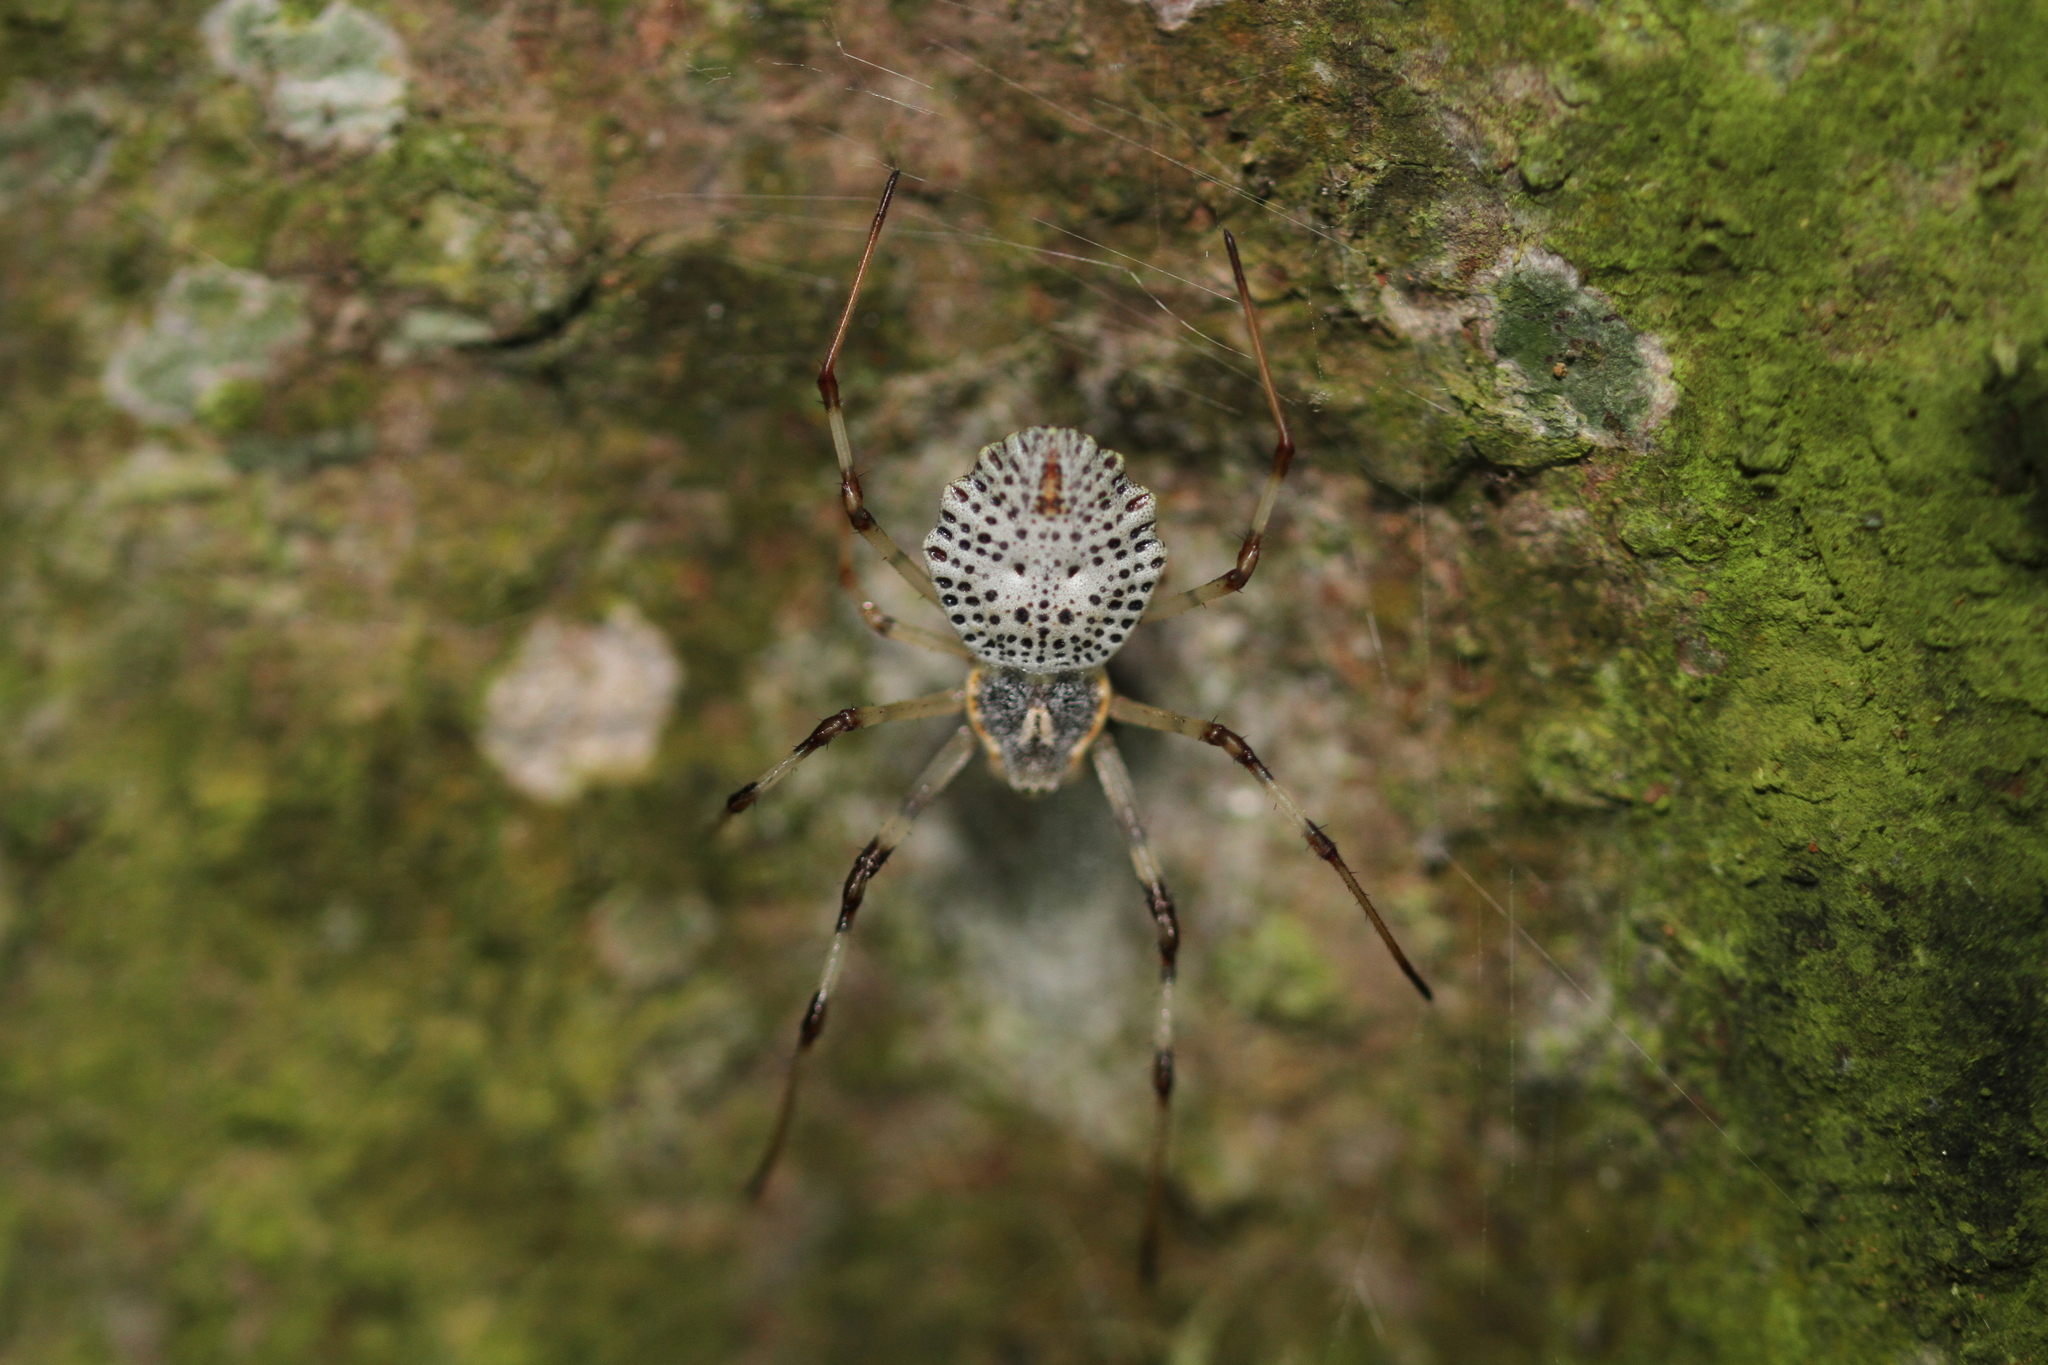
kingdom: Animalia
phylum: Arthropoda
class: Arachnida
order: Araneae
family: Araneidae
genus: Herennia
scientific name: Herennia multipuncta
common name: Spotted coin spider
